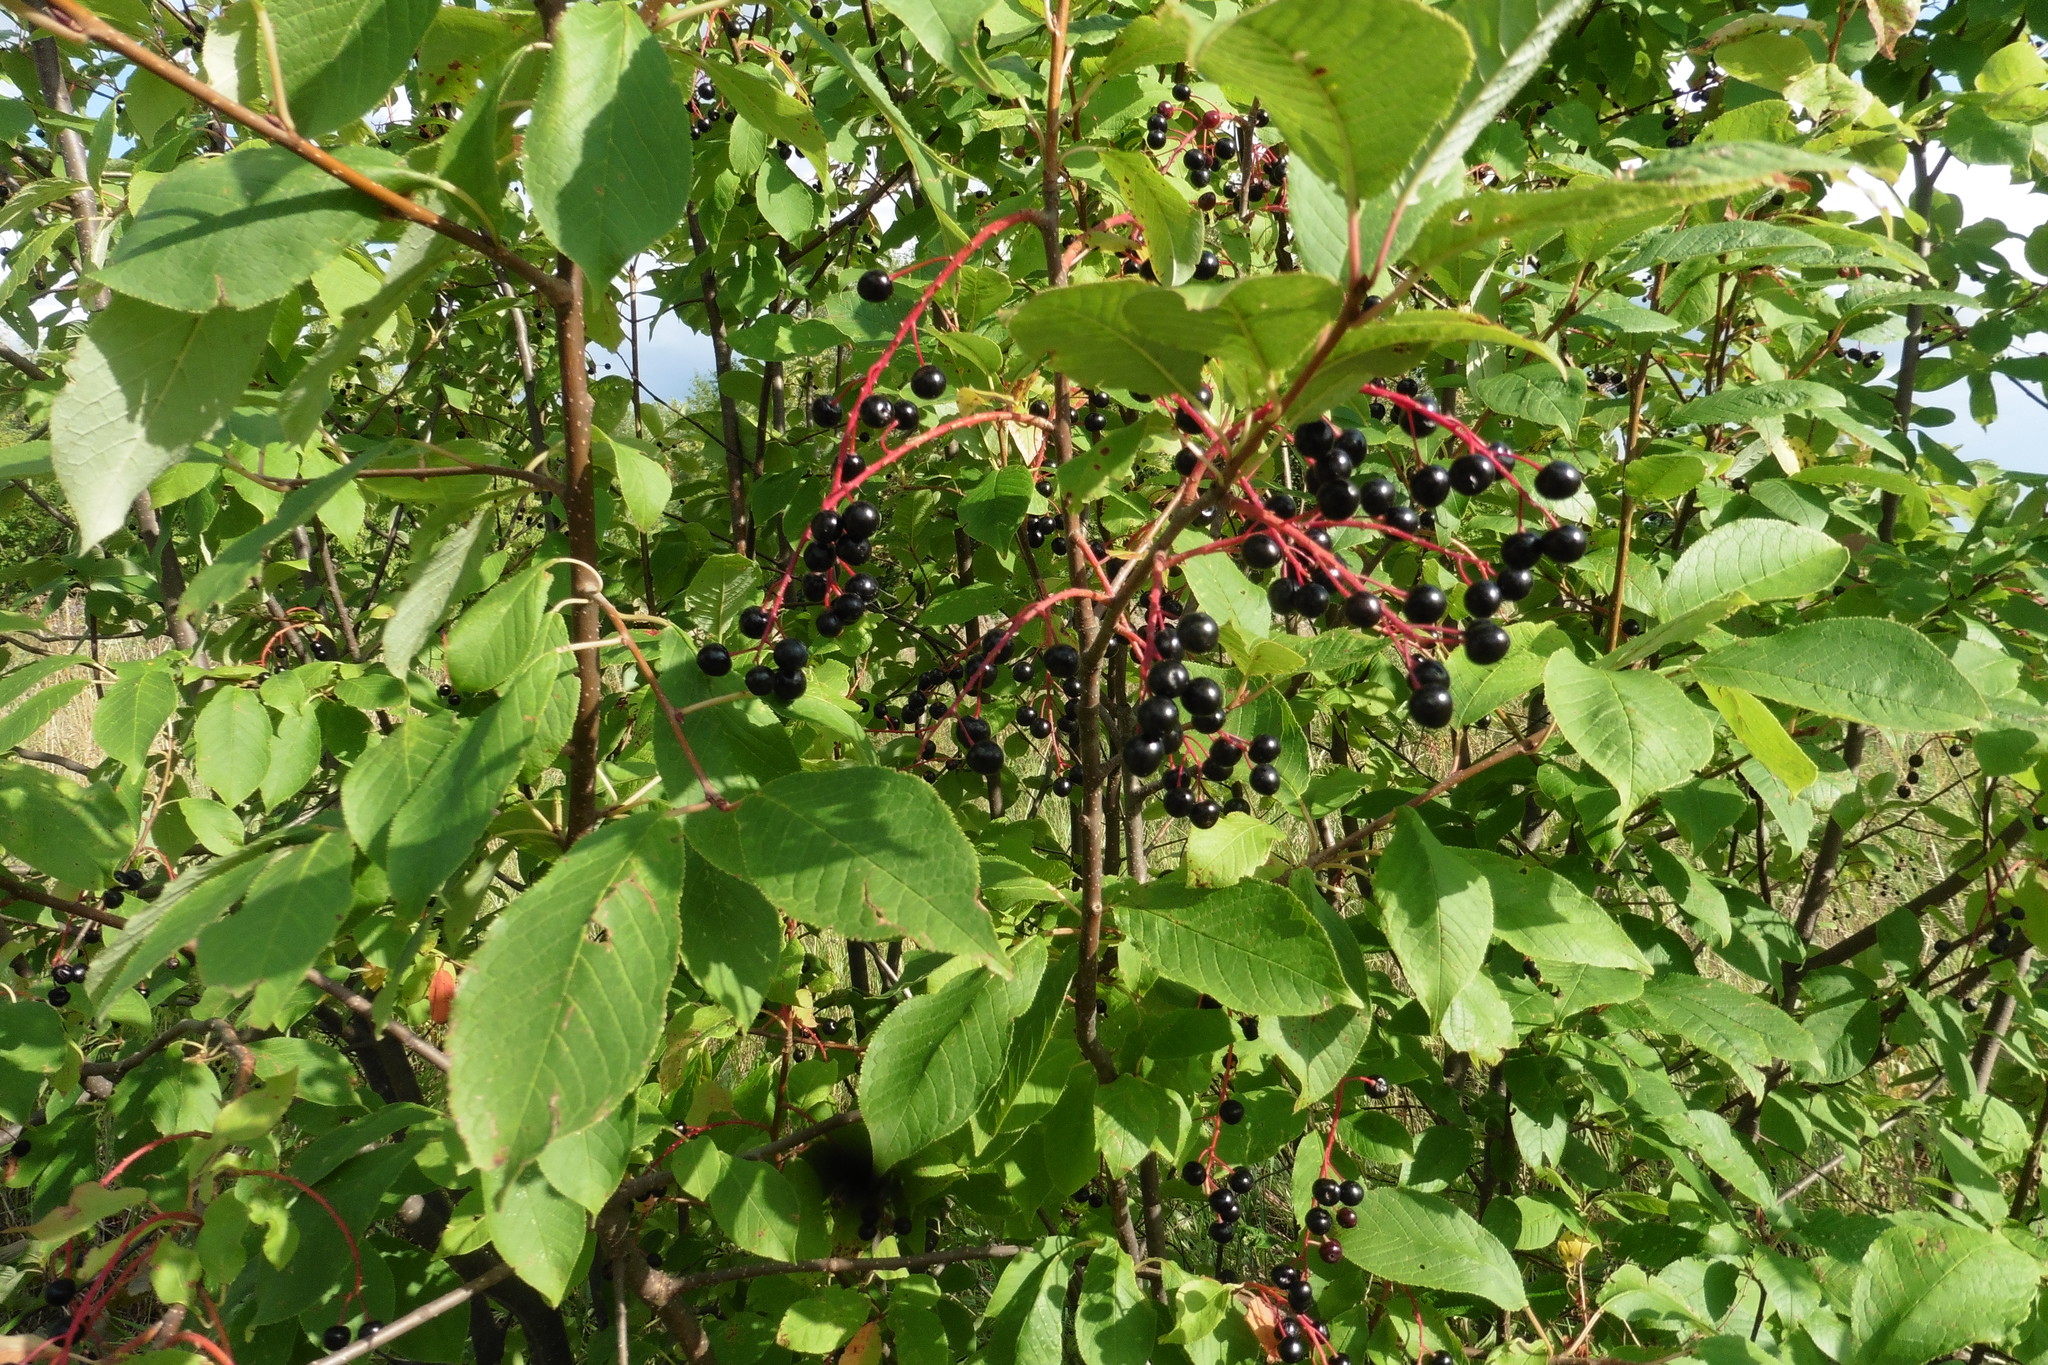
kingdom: Plantae
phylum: Tracheophyta
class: Magnoliopsida
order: Rosales
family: Rosaceae
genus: Prunus
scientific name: Prunus padus
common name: Bird cherry
